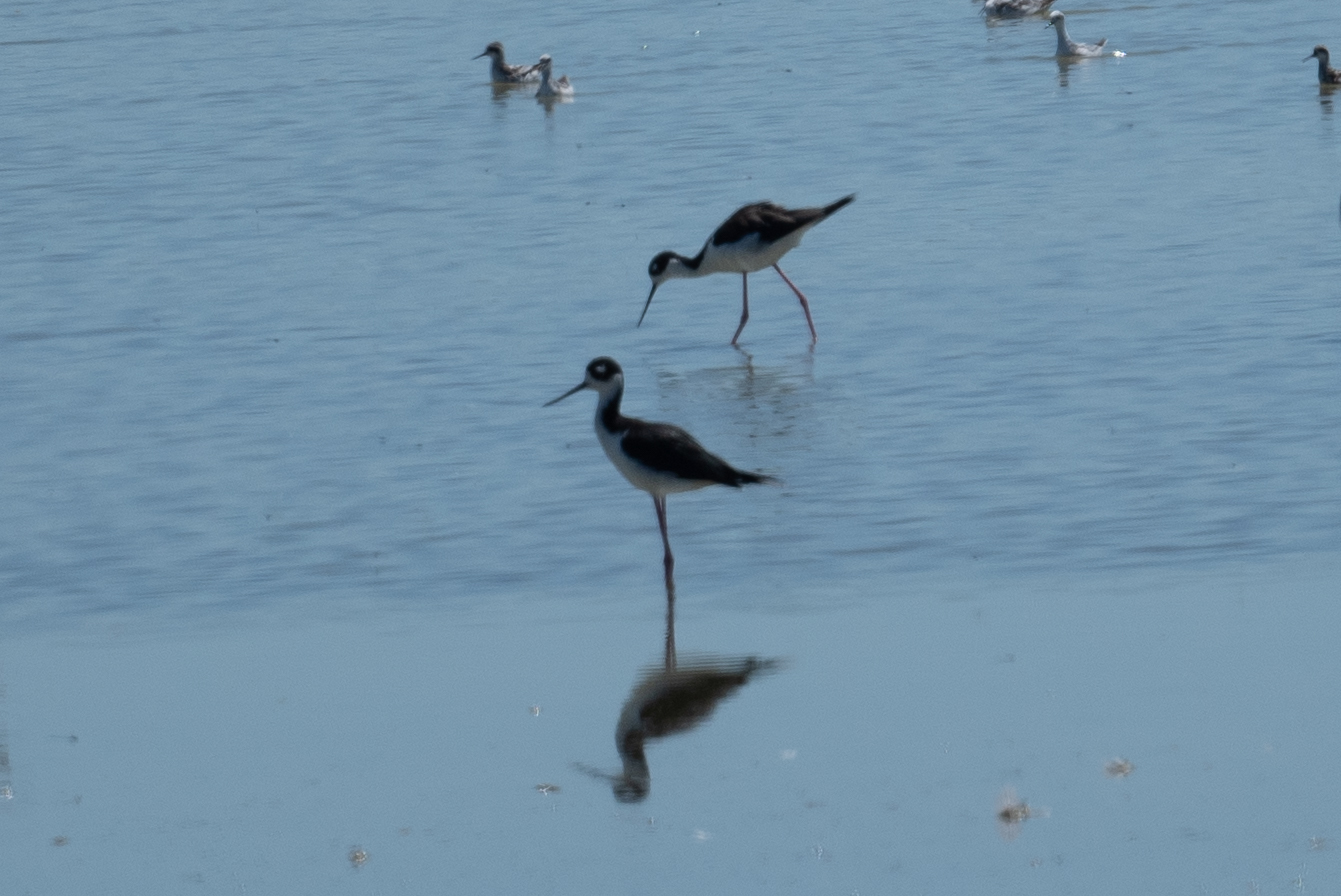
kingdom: Animalia
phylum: Chordata
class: Aves
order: Charadriiformes
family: Recurvirostridae
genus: Himantopus
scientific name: Himantopus mexicanus
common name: Black-necked stilt
